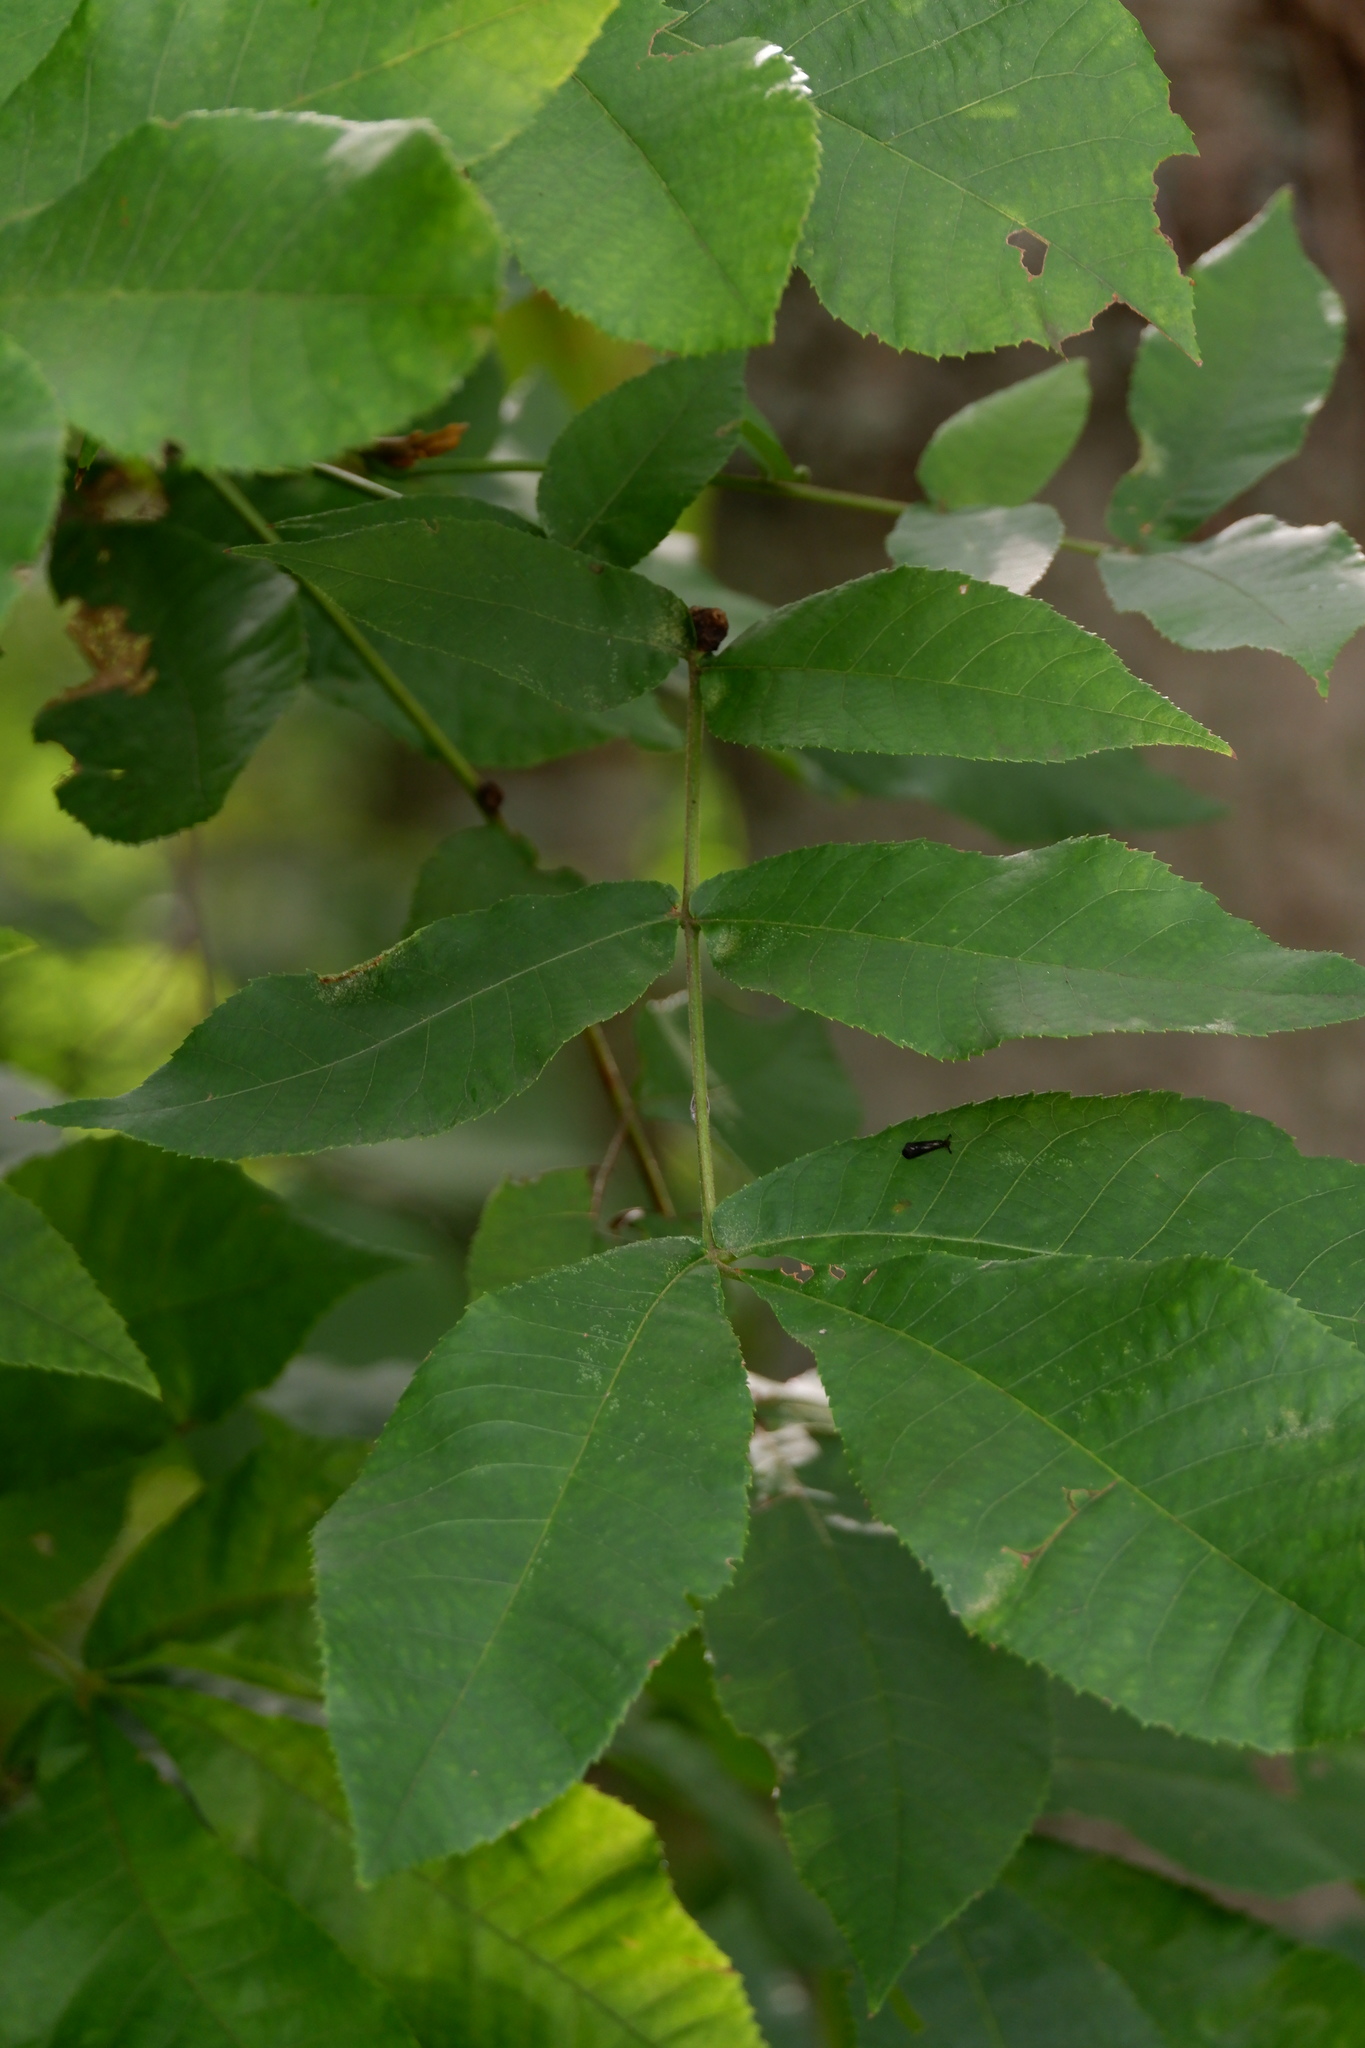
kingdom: Animalia
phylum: Arthropoda
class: Insecta
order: Trichoptera
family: Leptoceridae
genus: Mystacides
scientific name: Mystacides sepulchralis
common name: Black dancer caddisfly
